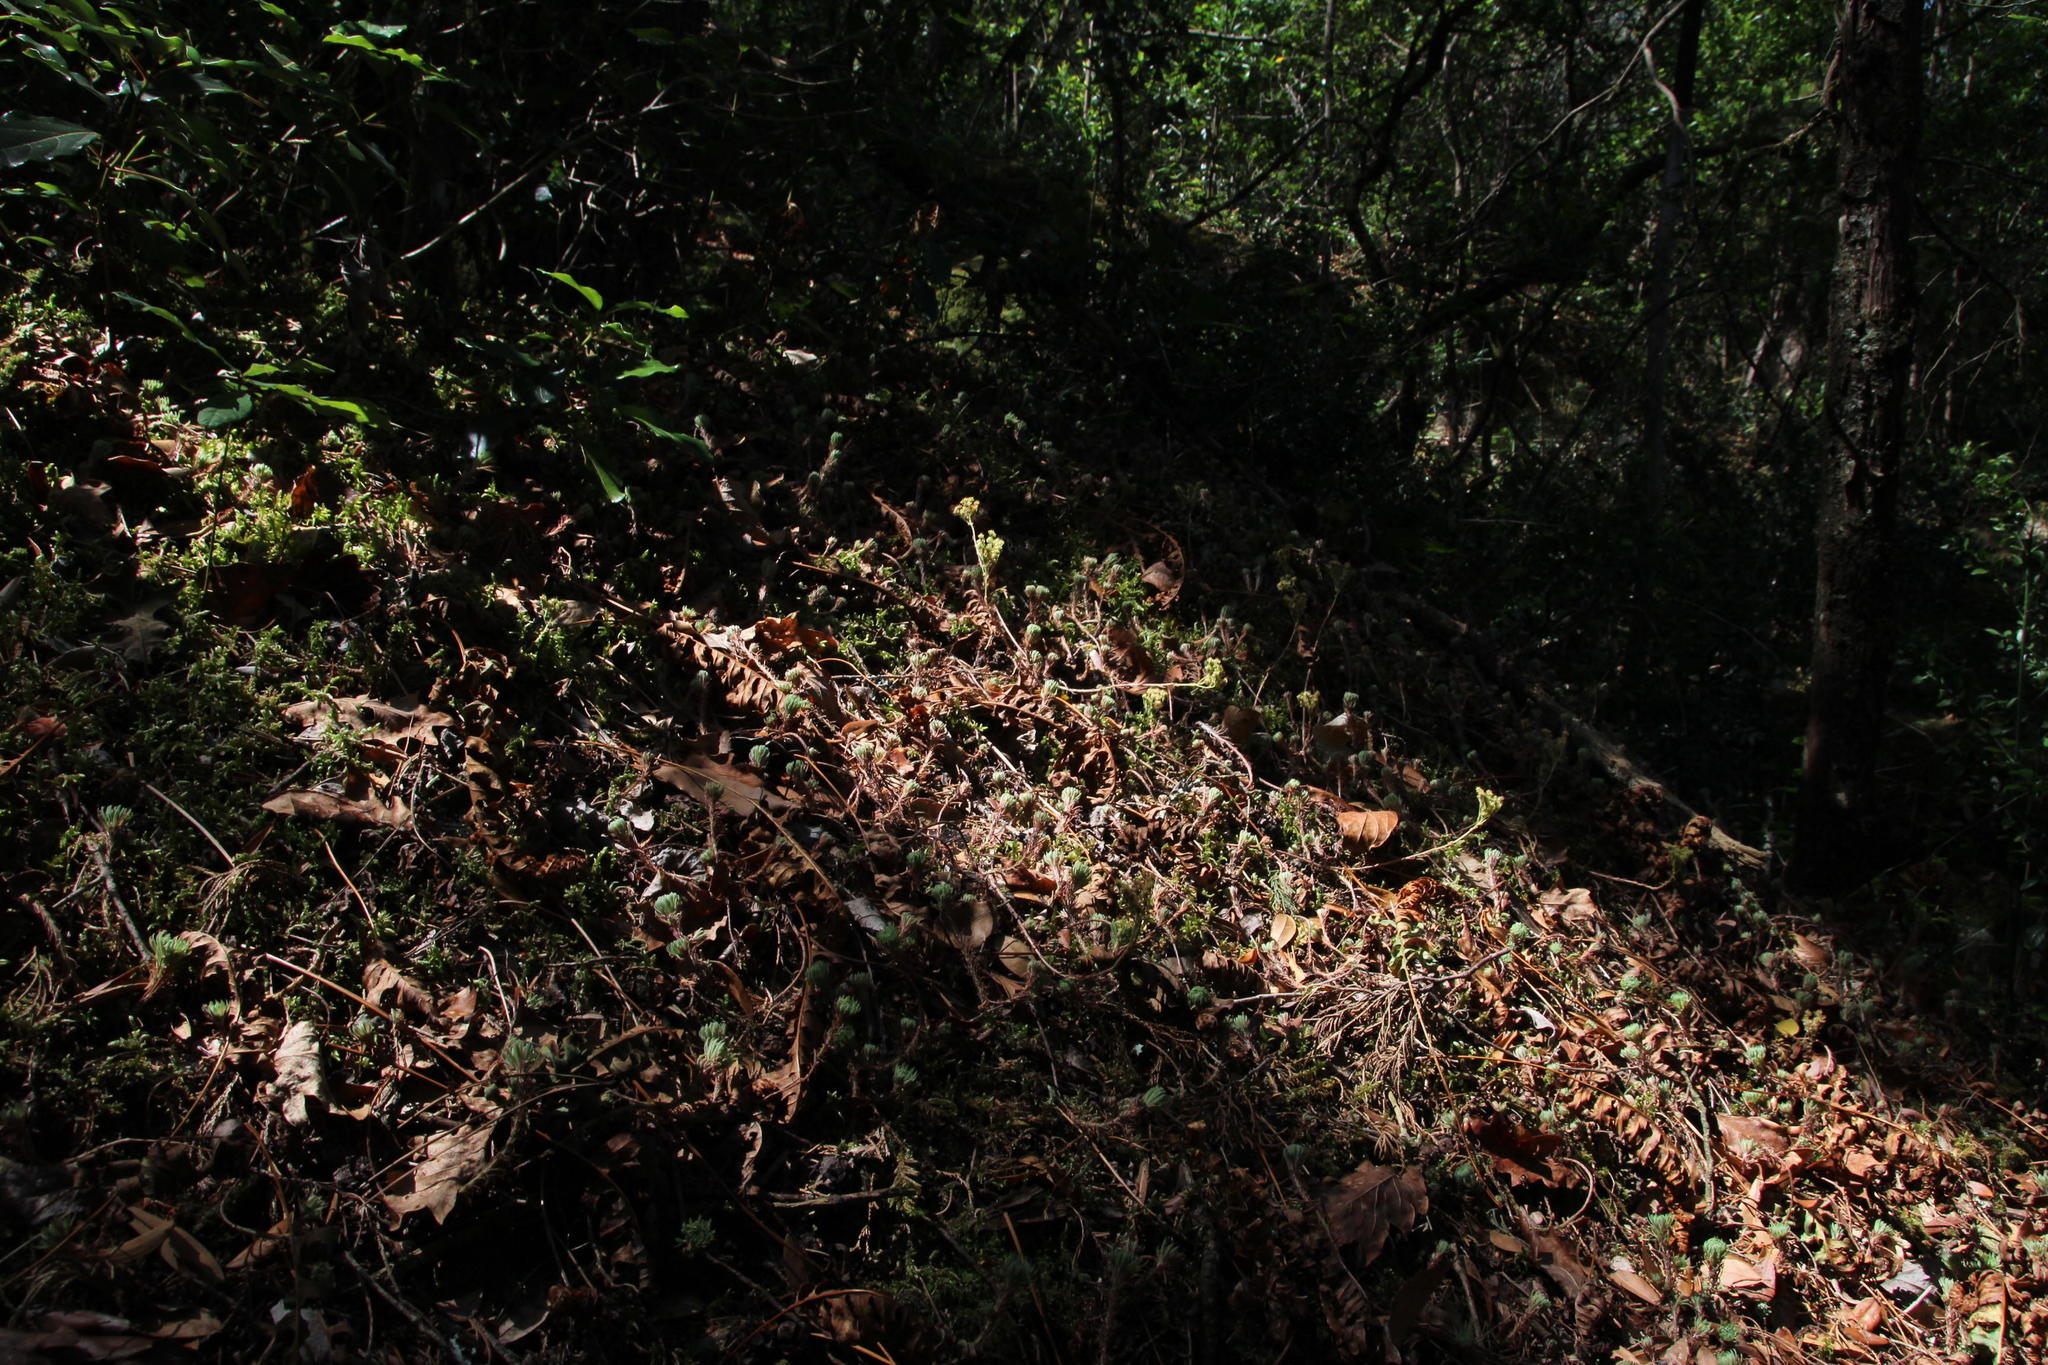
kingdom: Plantae
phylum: Tracheophyta
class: Magnoliopsida
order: Saxifragales
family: Crassulaceae
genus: Petrosedum
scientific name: Petrosedum forsterianum
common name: Forster's stonecrop
